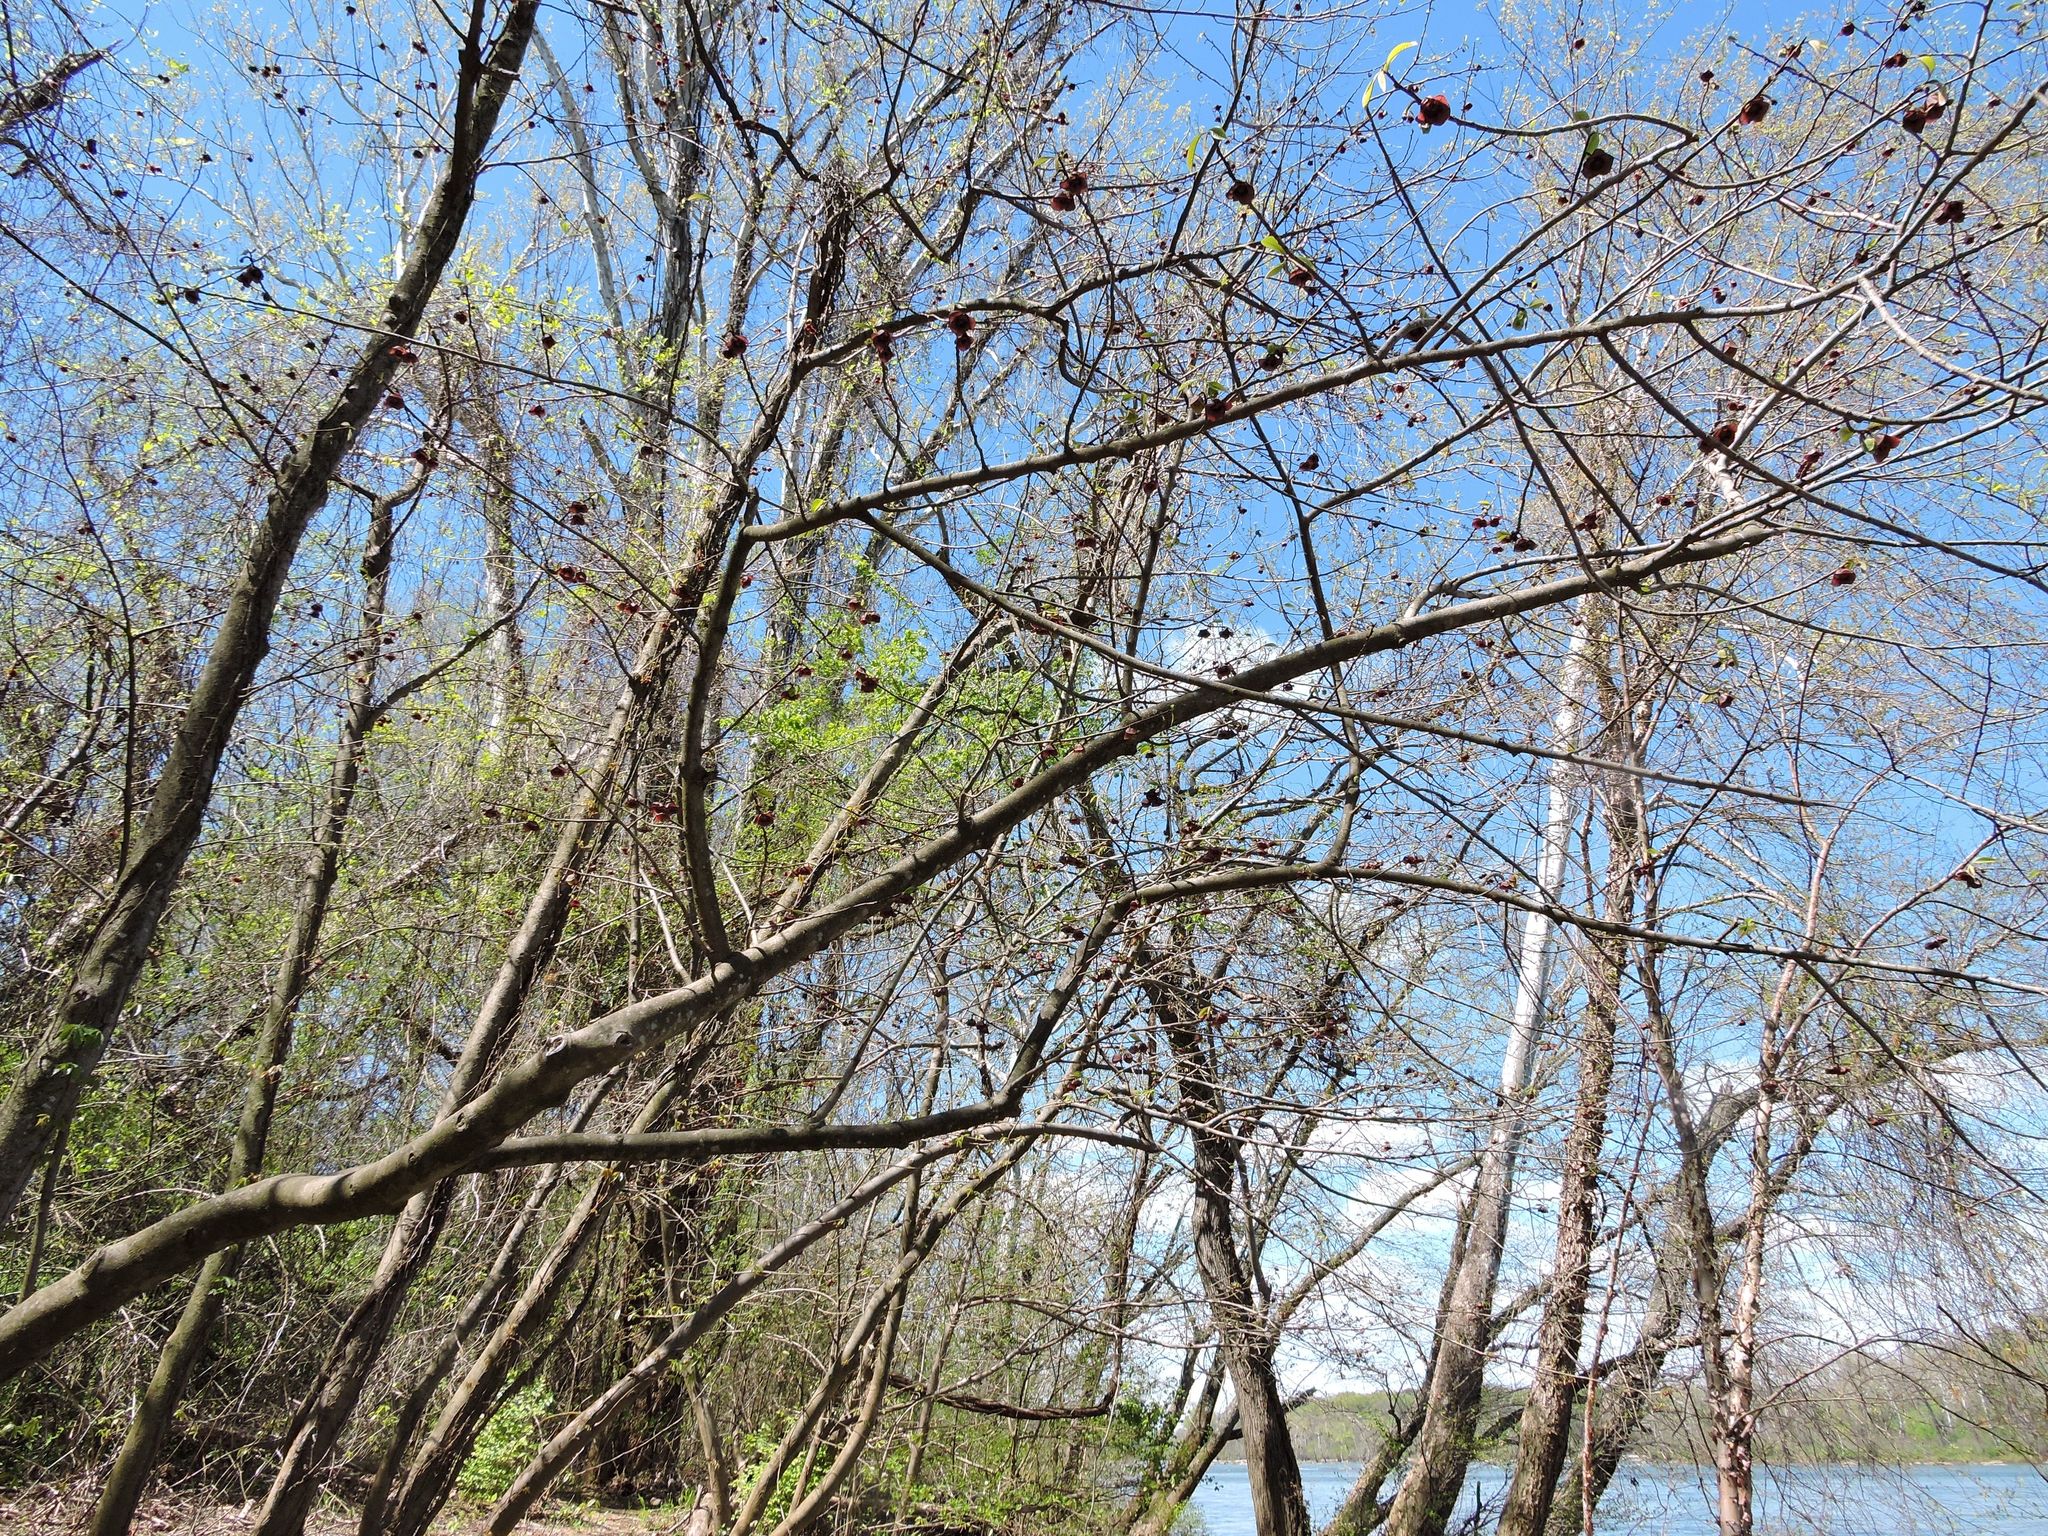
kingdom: Plantae
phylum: Tracheophyta
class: Magnoliopsida
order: Magnoliales
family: Annonaceae
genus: Asimina
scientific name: Asimina triloba
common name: Dog-banana
